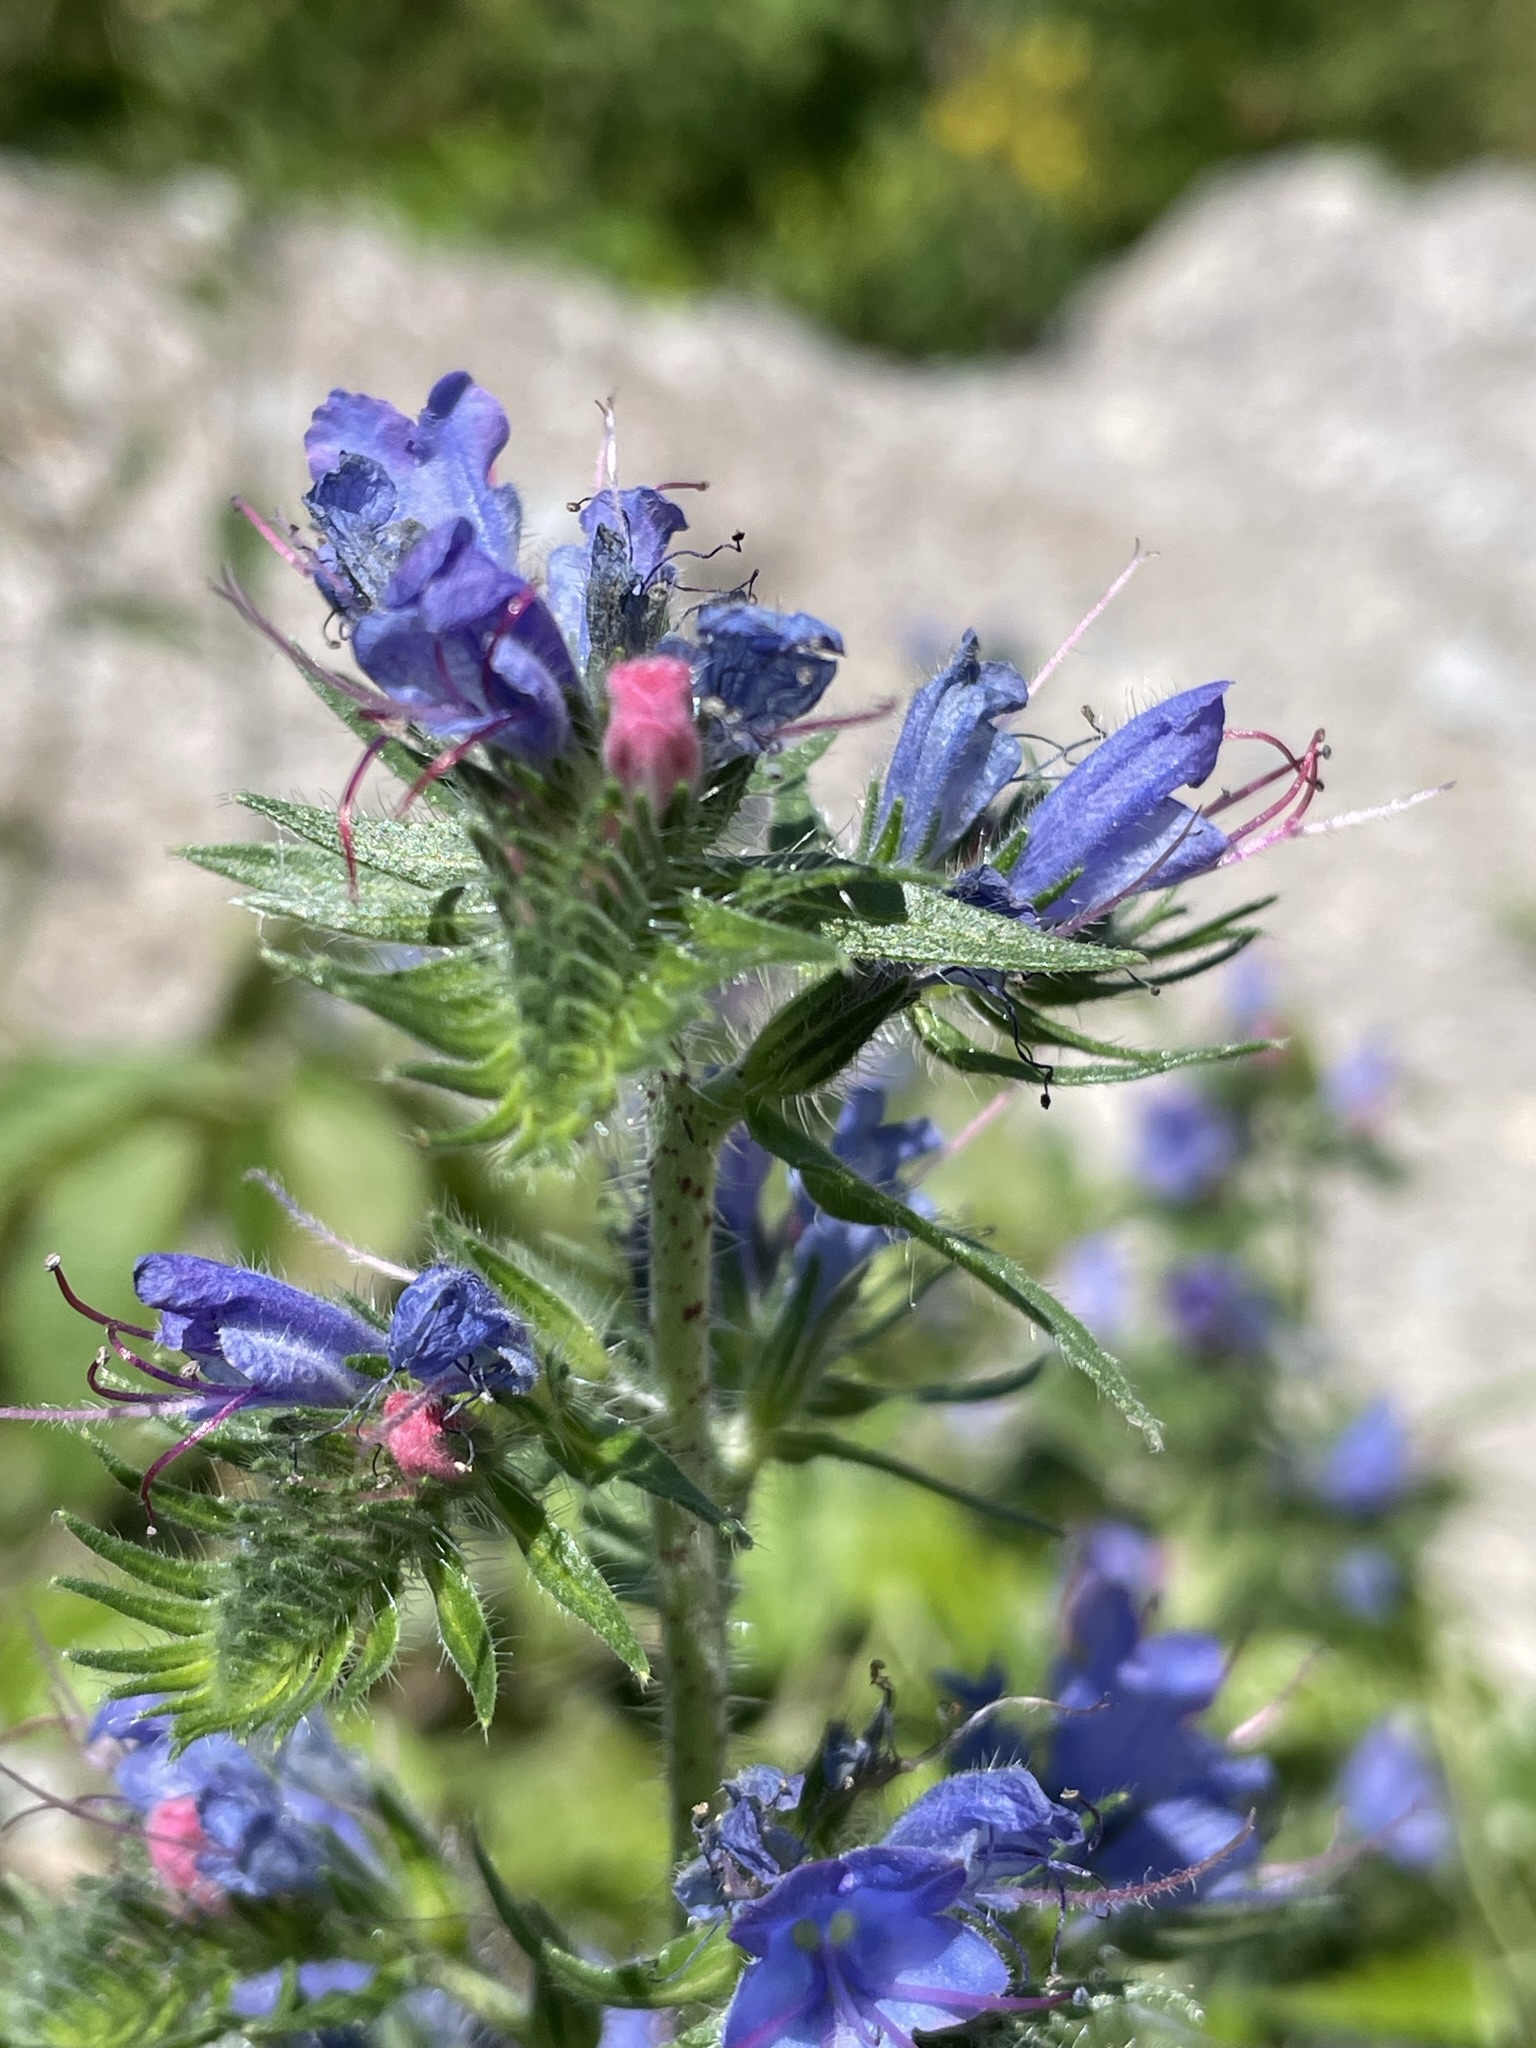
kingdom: Plantae
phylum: Tracheophyta
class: Magnoliopsida
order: Boraginales
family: Boraginaceae
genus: Echium
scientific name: Echium vulgare
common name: Common viper's bugloss
